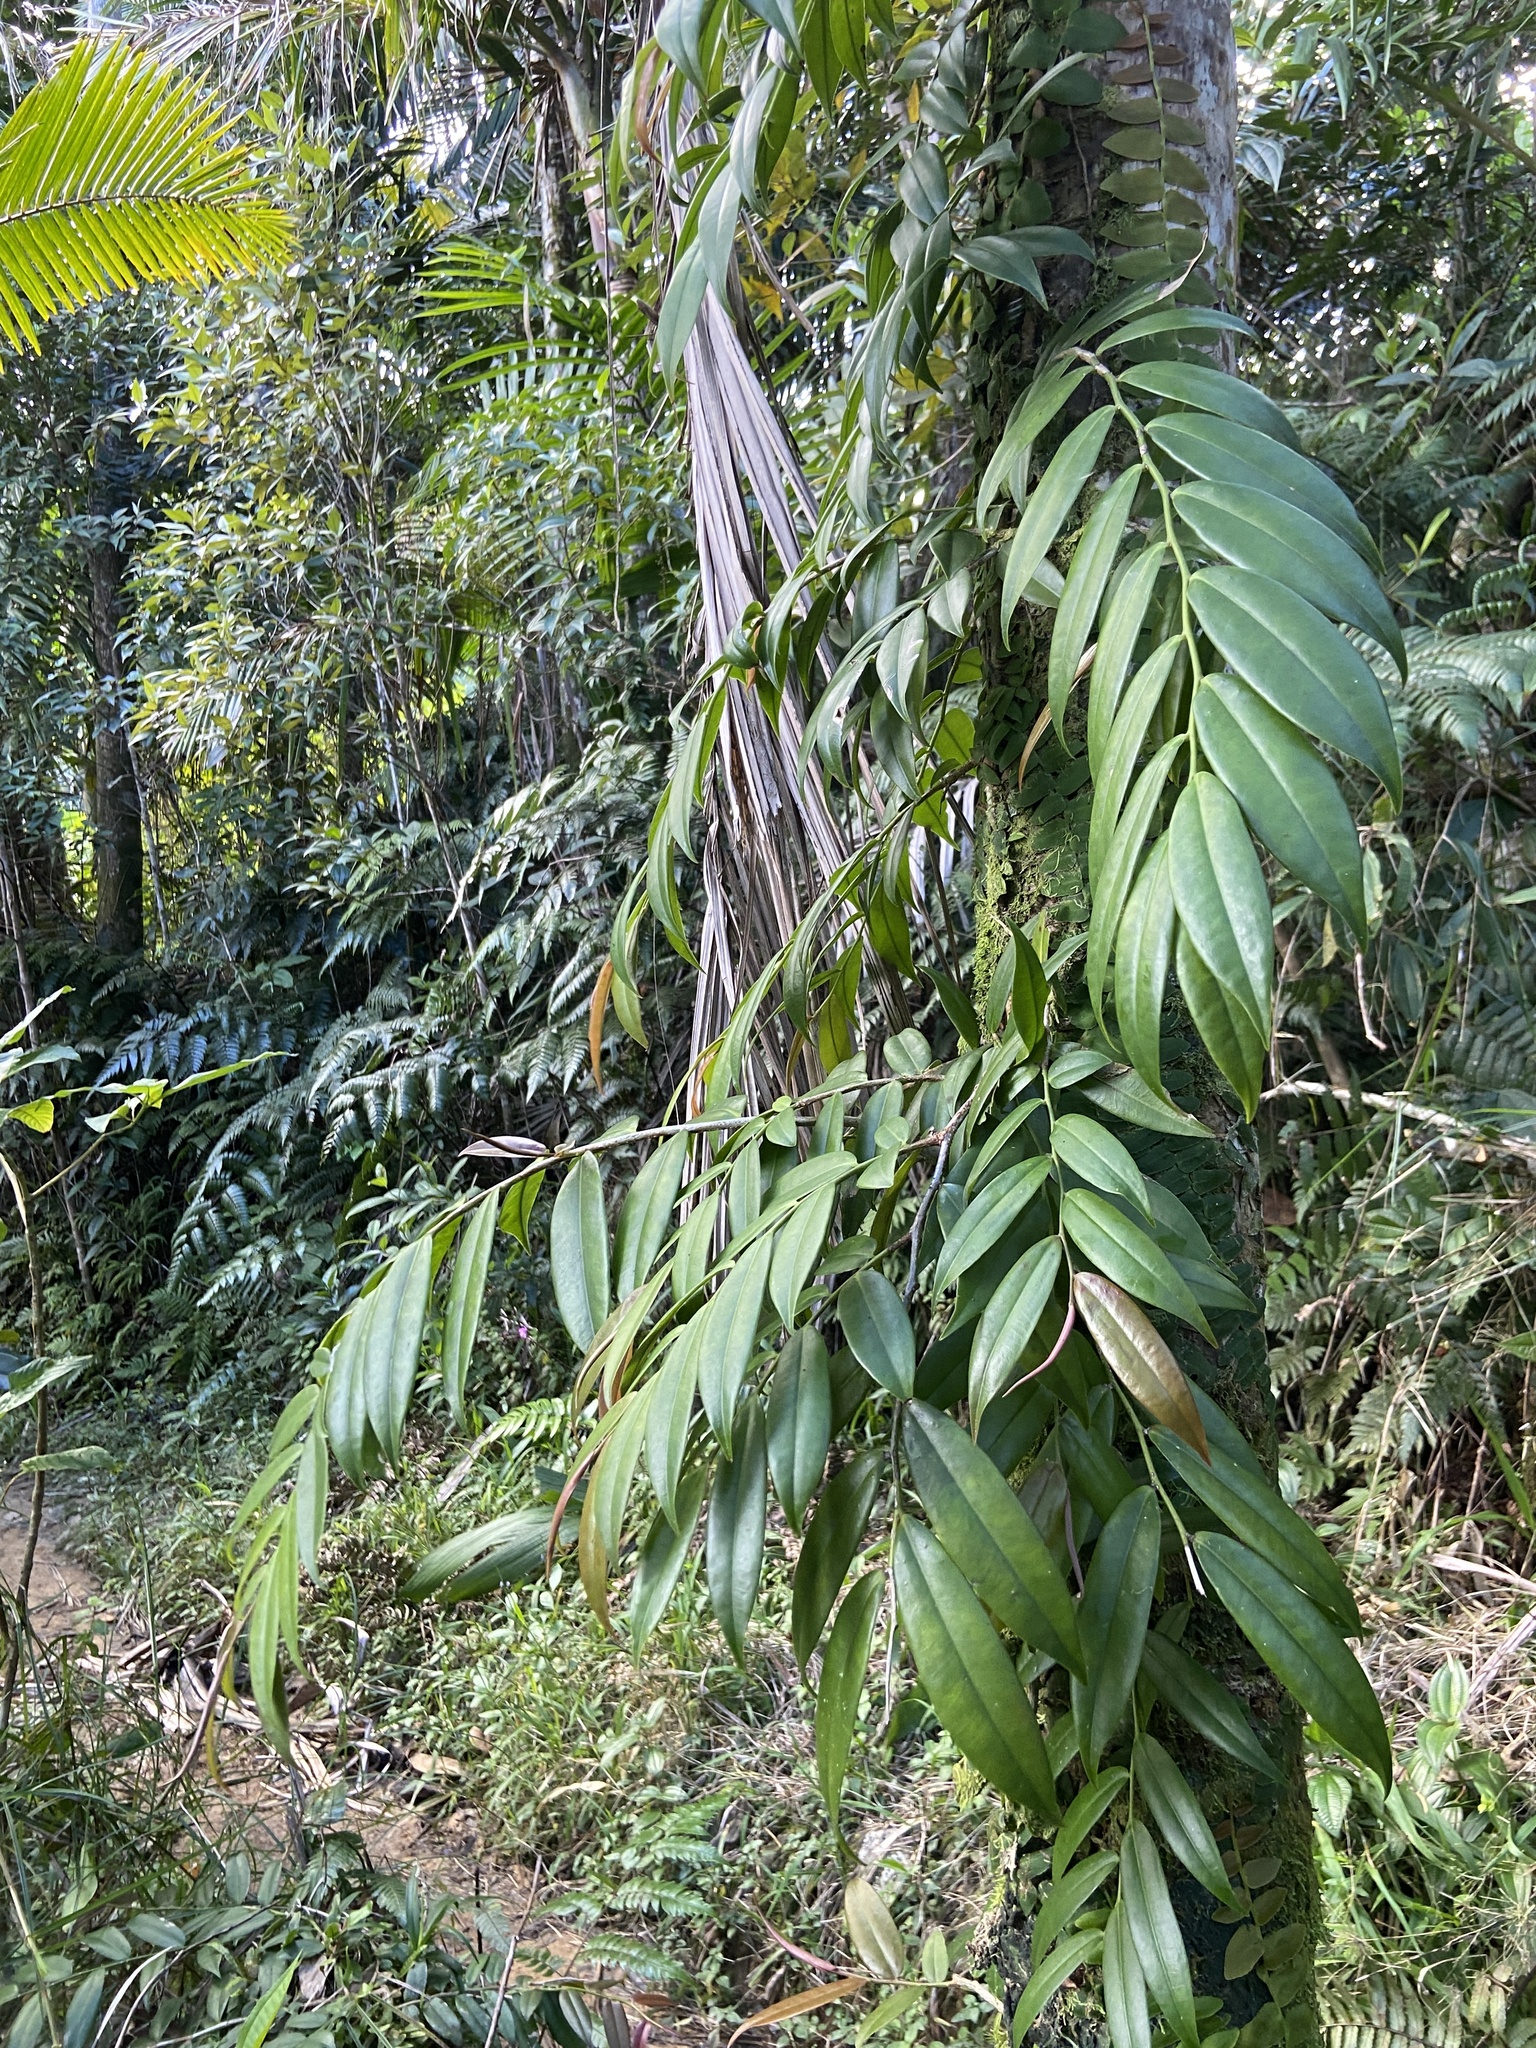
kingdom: Plantae
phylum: Tracheophyta
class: Magnoliopsida
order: Ericales
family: Marcgraviaceae
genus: Marcgravia
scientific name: Marcgravia rectiflora
